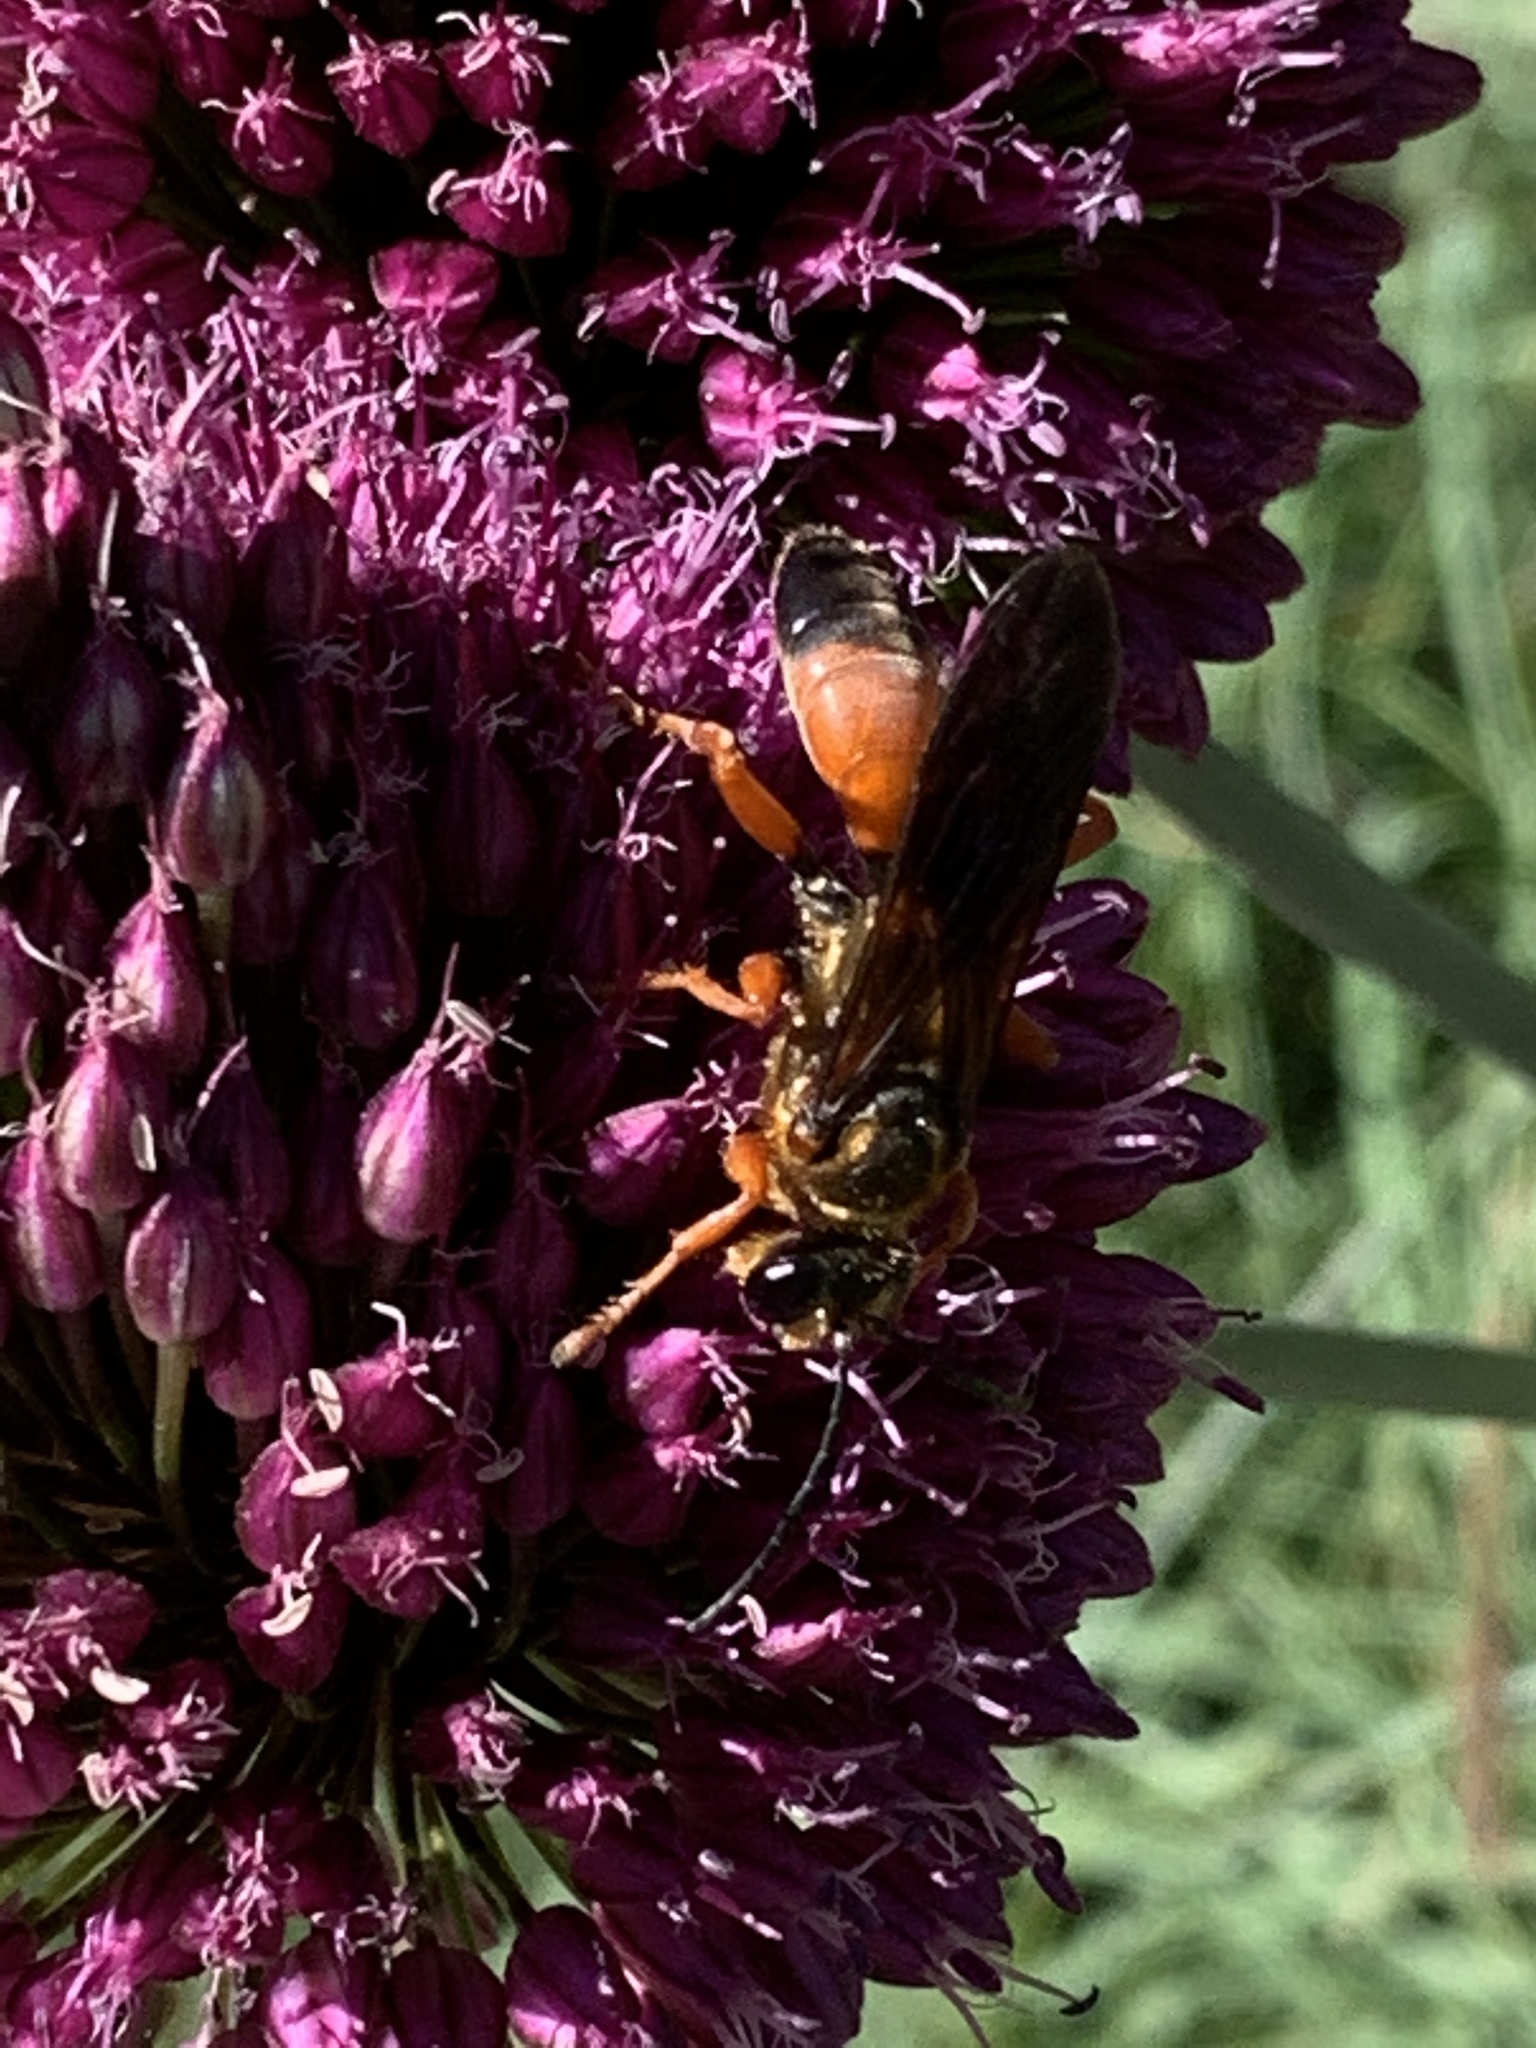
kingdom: Animalia
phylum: Arthropoda
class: Insecta
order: Hymenoptera
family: Sphecidae
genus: Sphex
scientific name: Sphex ichneumoneus
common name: Great golden digger wasp
